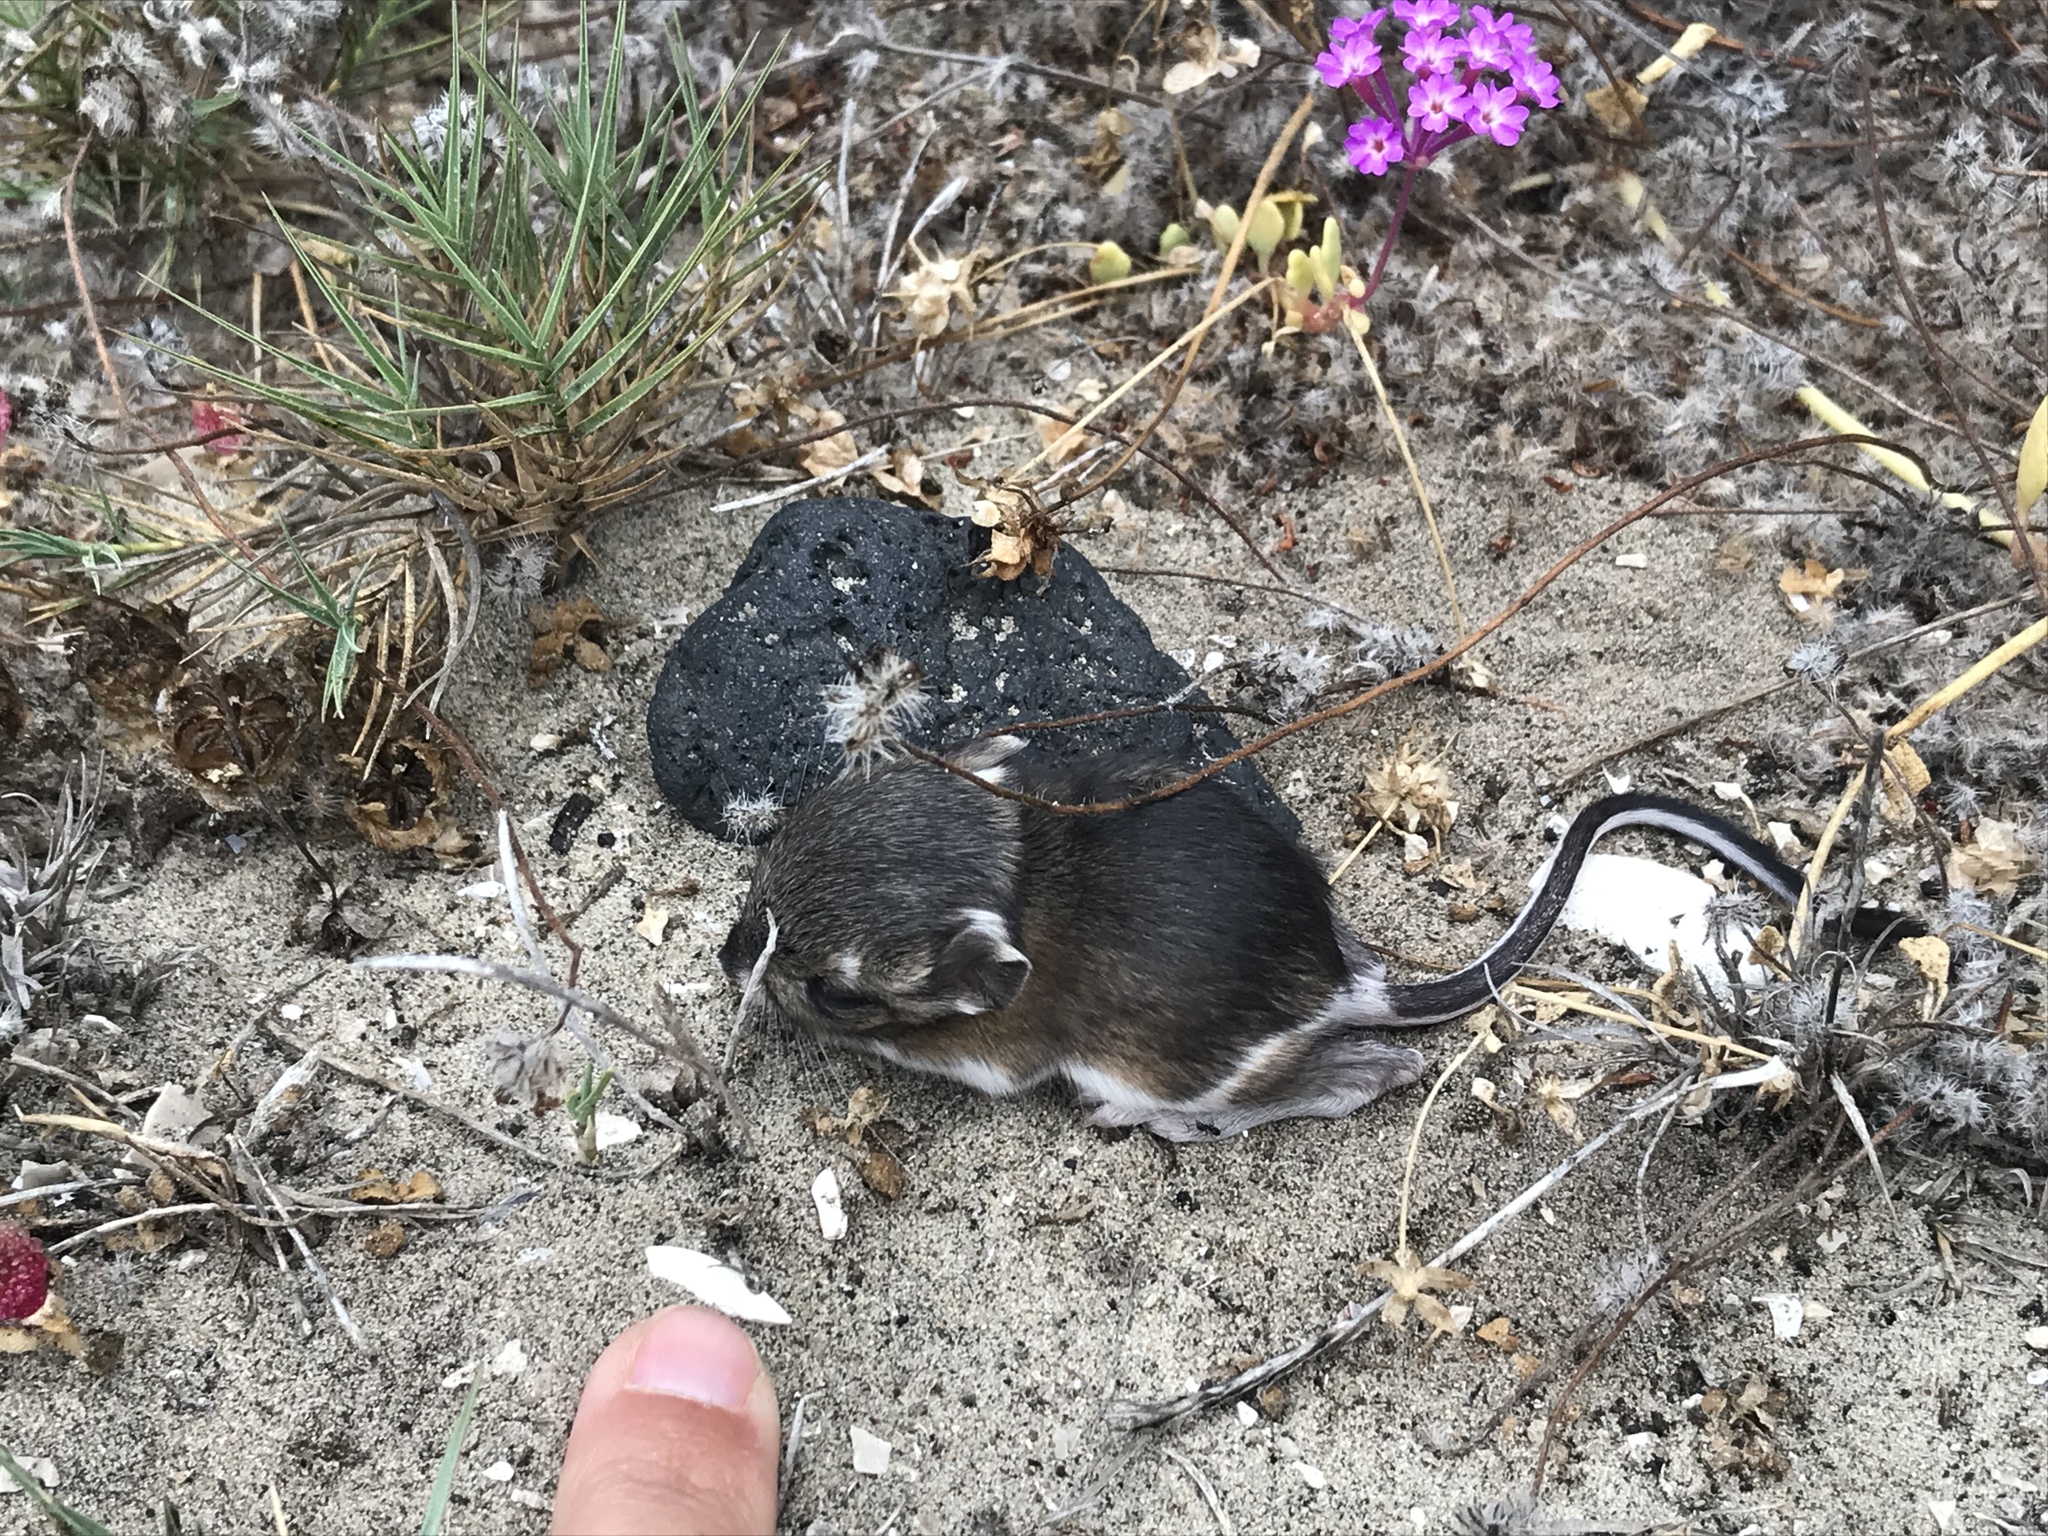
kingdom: Animalia
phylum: Chordata
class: Mammalia
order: Rodentia
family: Heteromyidae
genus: Dipodomys
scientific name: Dipodomys simulans
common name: Dulzura kangaroo rat
